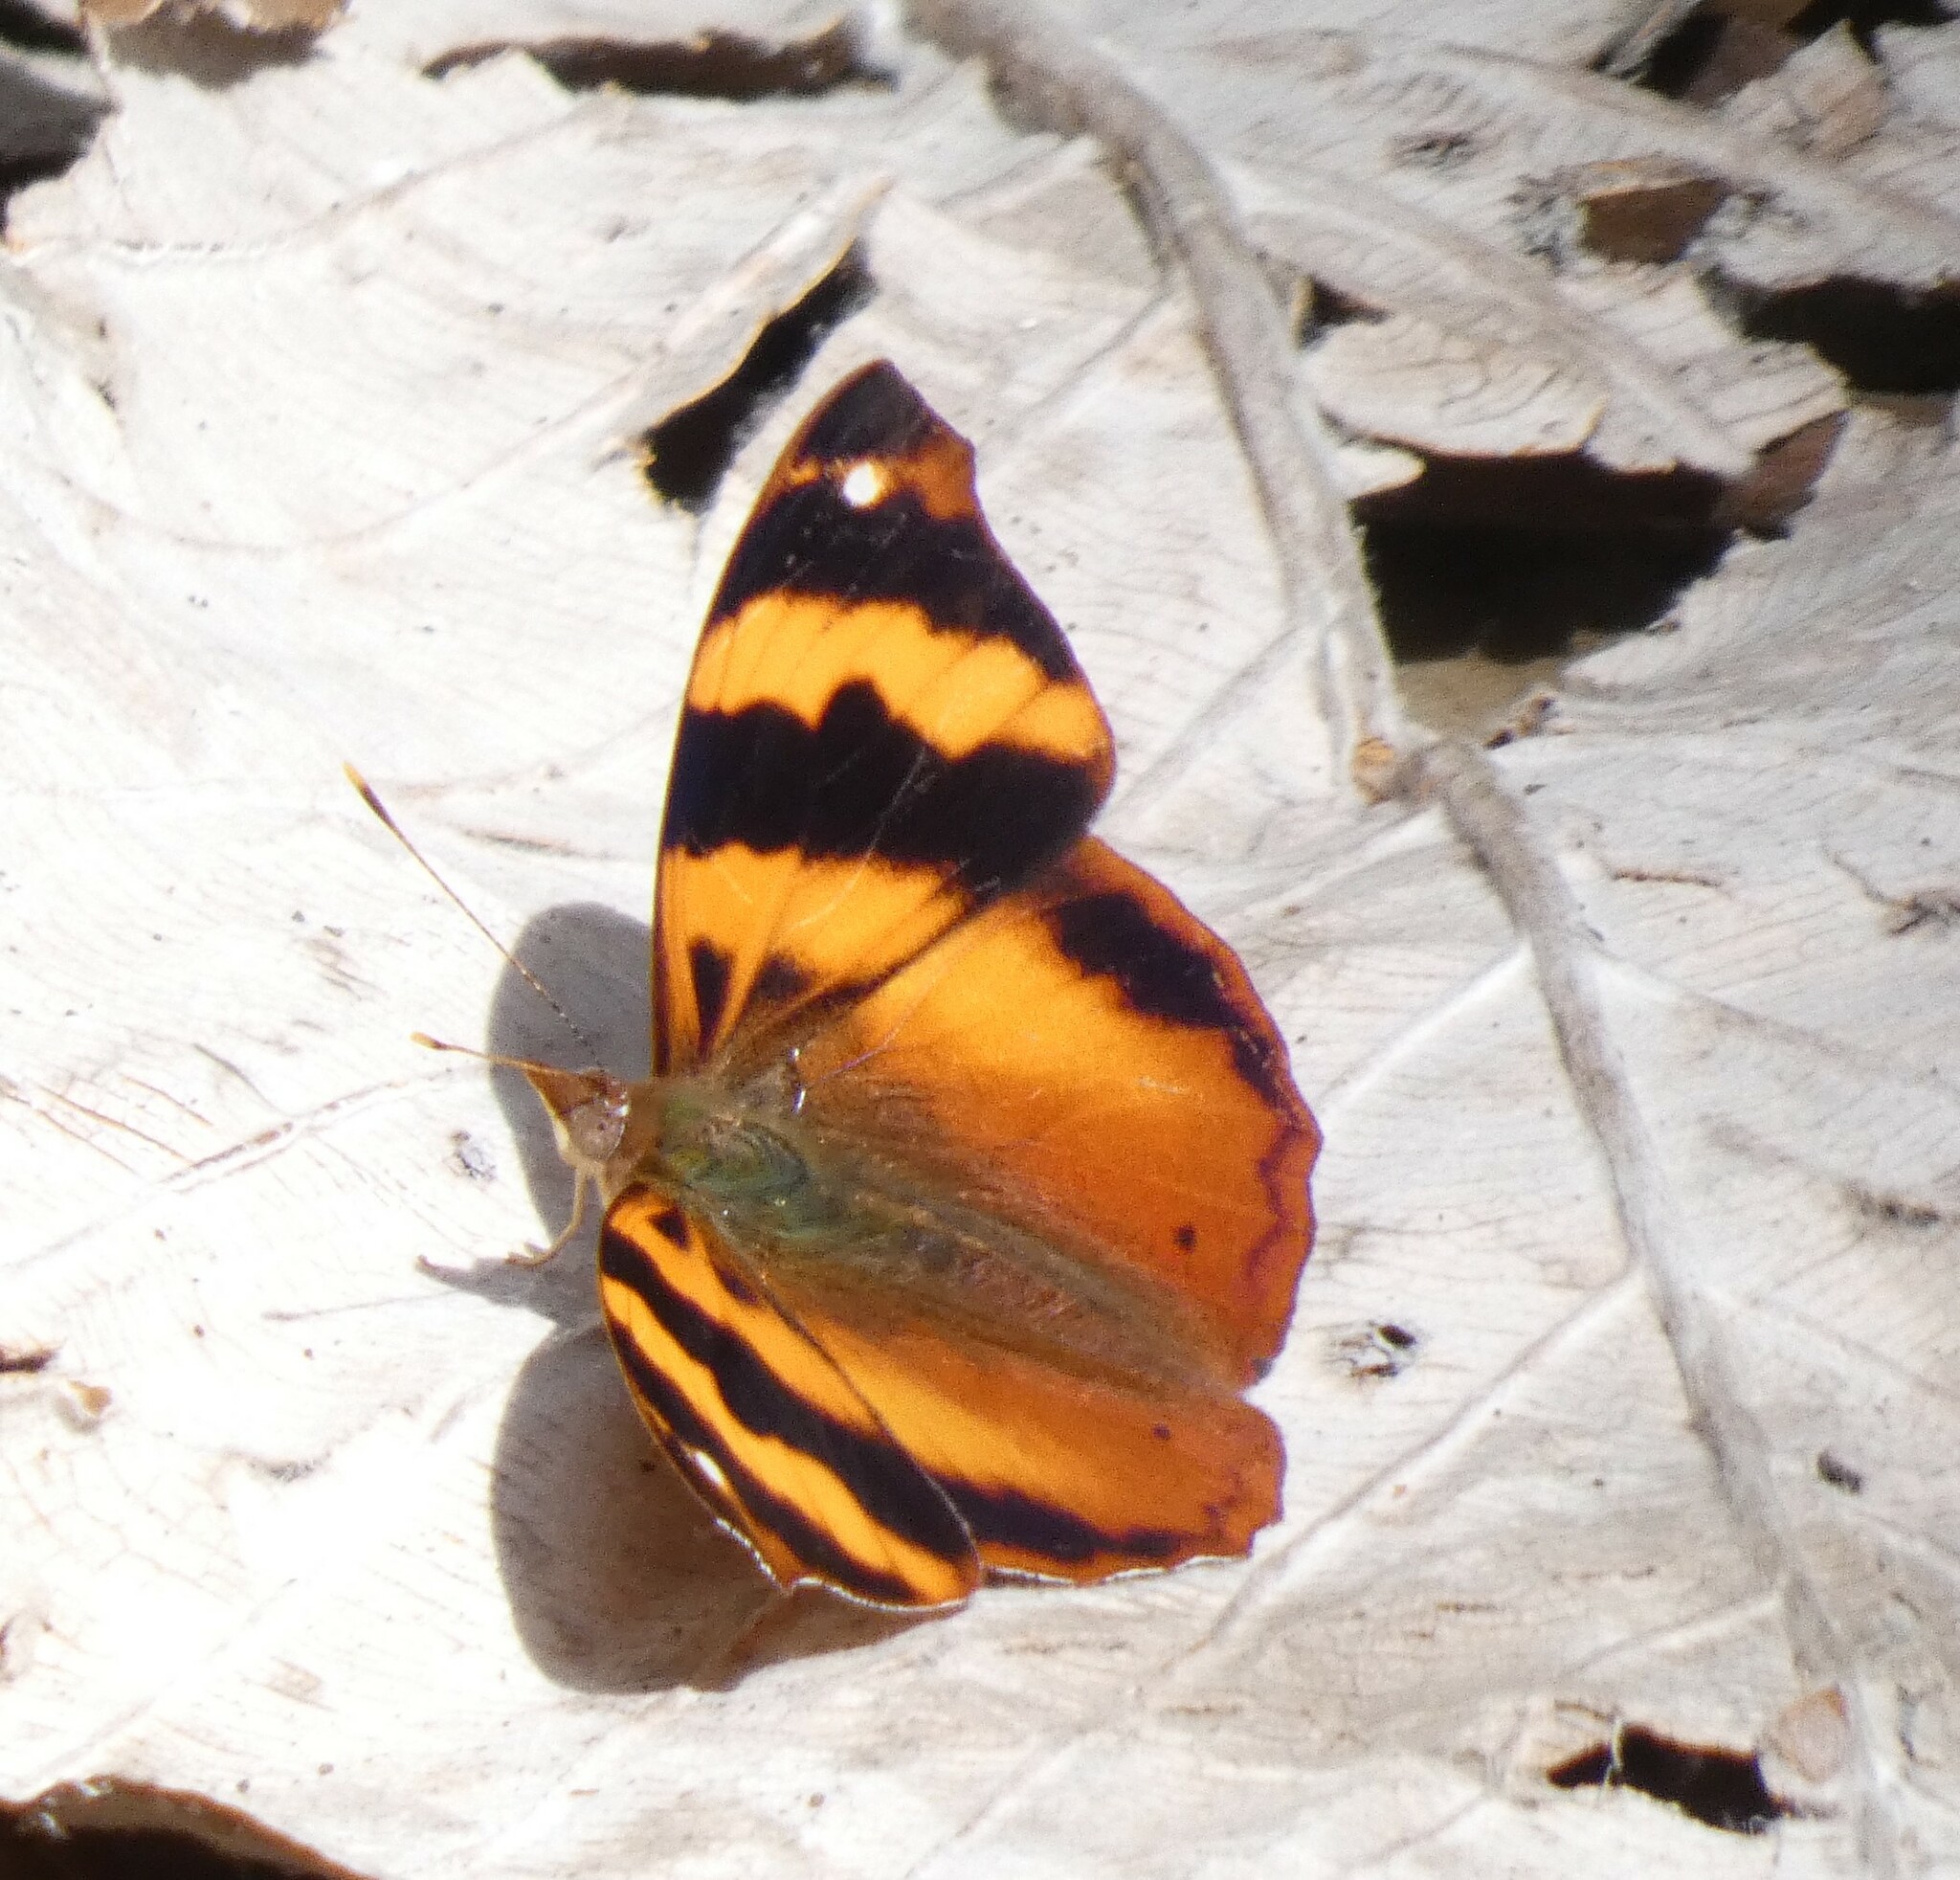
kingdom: Animalia
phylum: Arthropoda
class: Insecta
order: Lepidoptera
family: Nymphalidae
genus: Epiphile
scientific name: Epiphile hubneri
